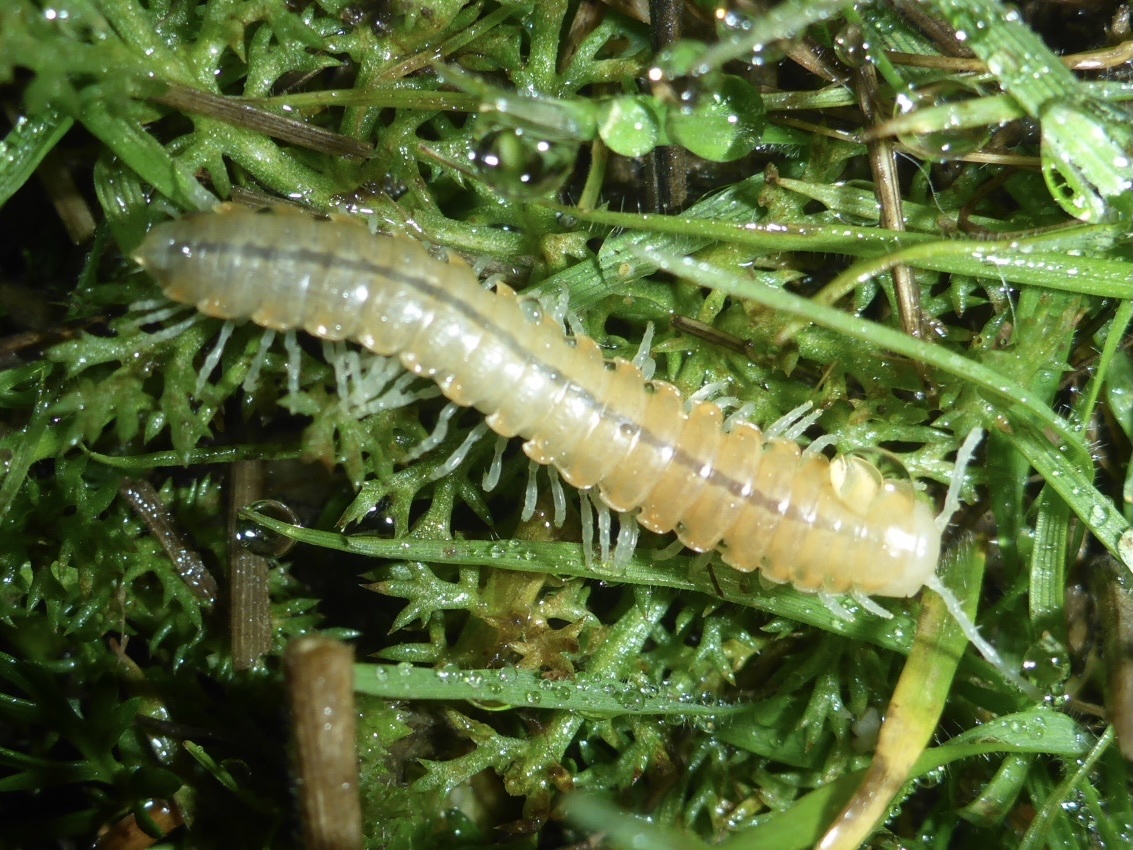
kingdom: Animalia
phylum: Arthropoda
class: Diplopoda
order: Polydesmida
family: Xystodesmidae
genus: Xystocheir
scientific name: Xystocheir dissecta
